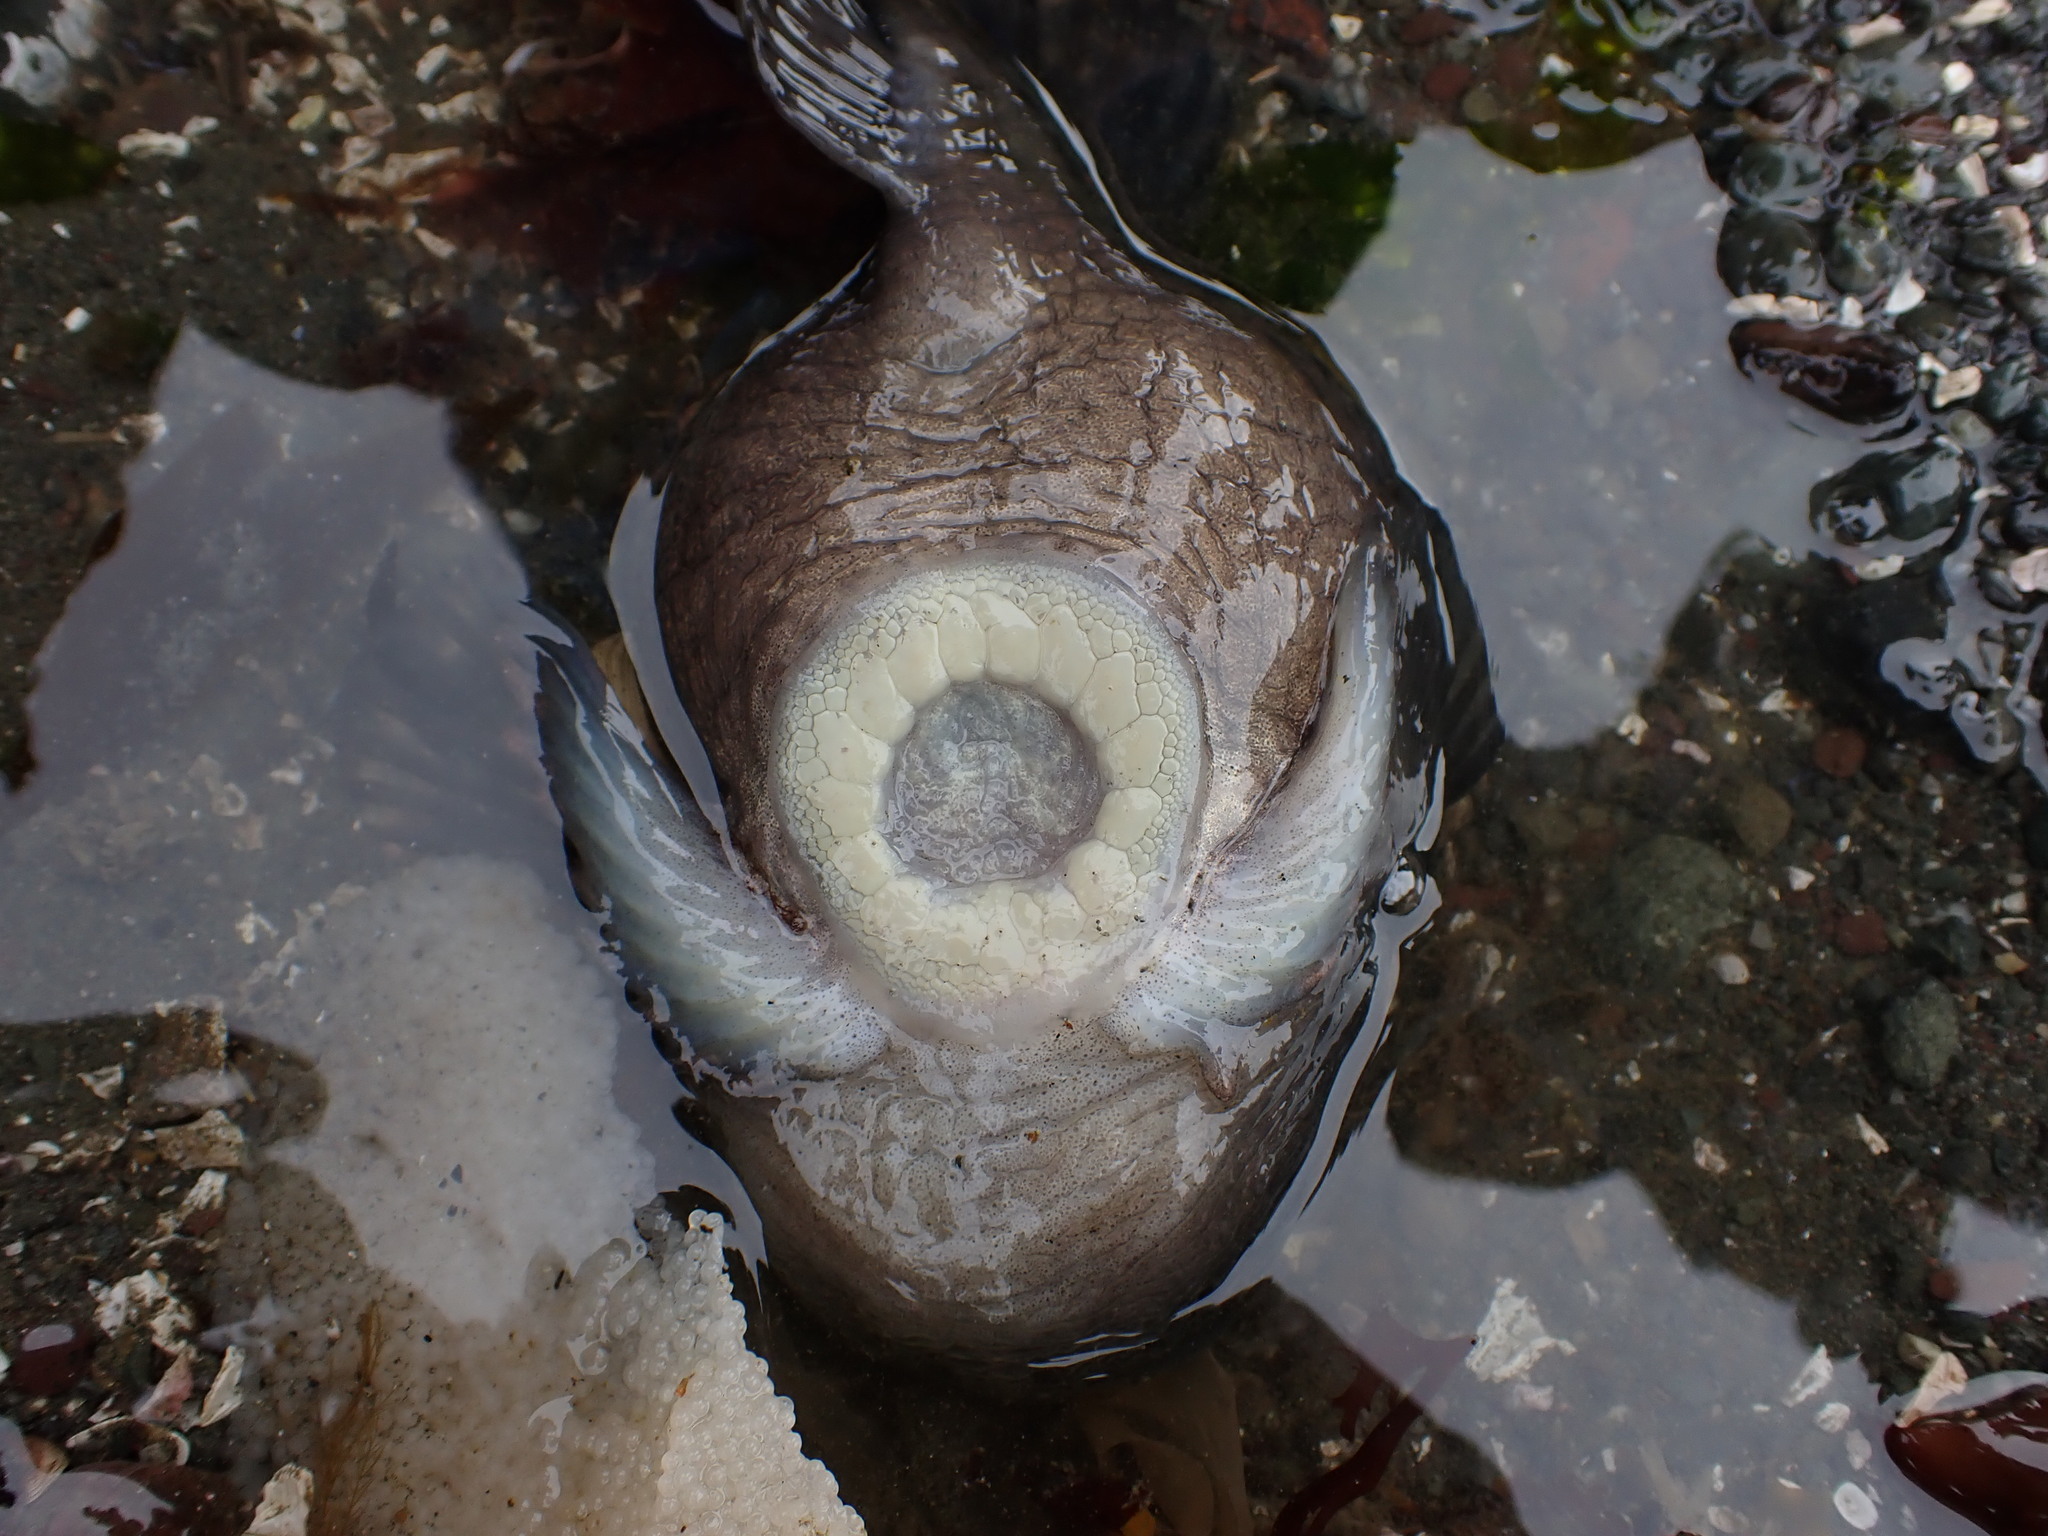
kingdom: Animalia
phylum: Chordata
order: Scorpaeniformes
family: Cyclopteridae
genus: Aptocyclus
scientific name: Aptocyclus ventricosus
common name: Smooth lumpsucker
